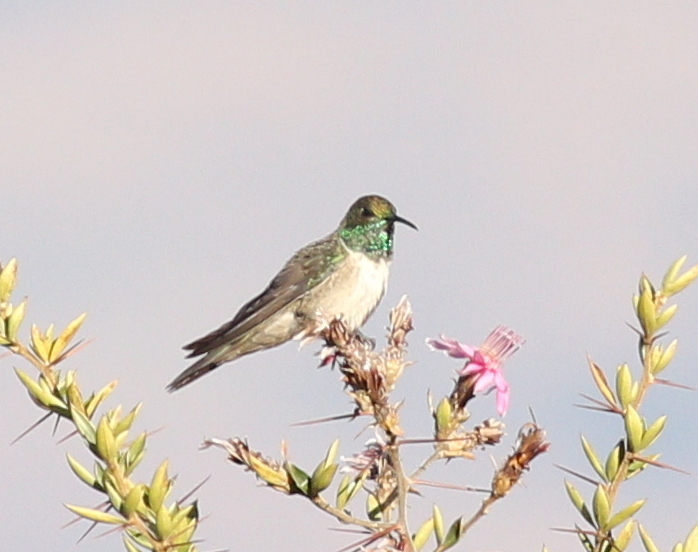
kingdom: Animalia
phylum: Chordata
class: Aves
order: Apodiformes
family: Trochilidae
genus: Oreotrochilus
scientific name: Oreotrochilus stolzmanni
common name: Green-headed hillstar
